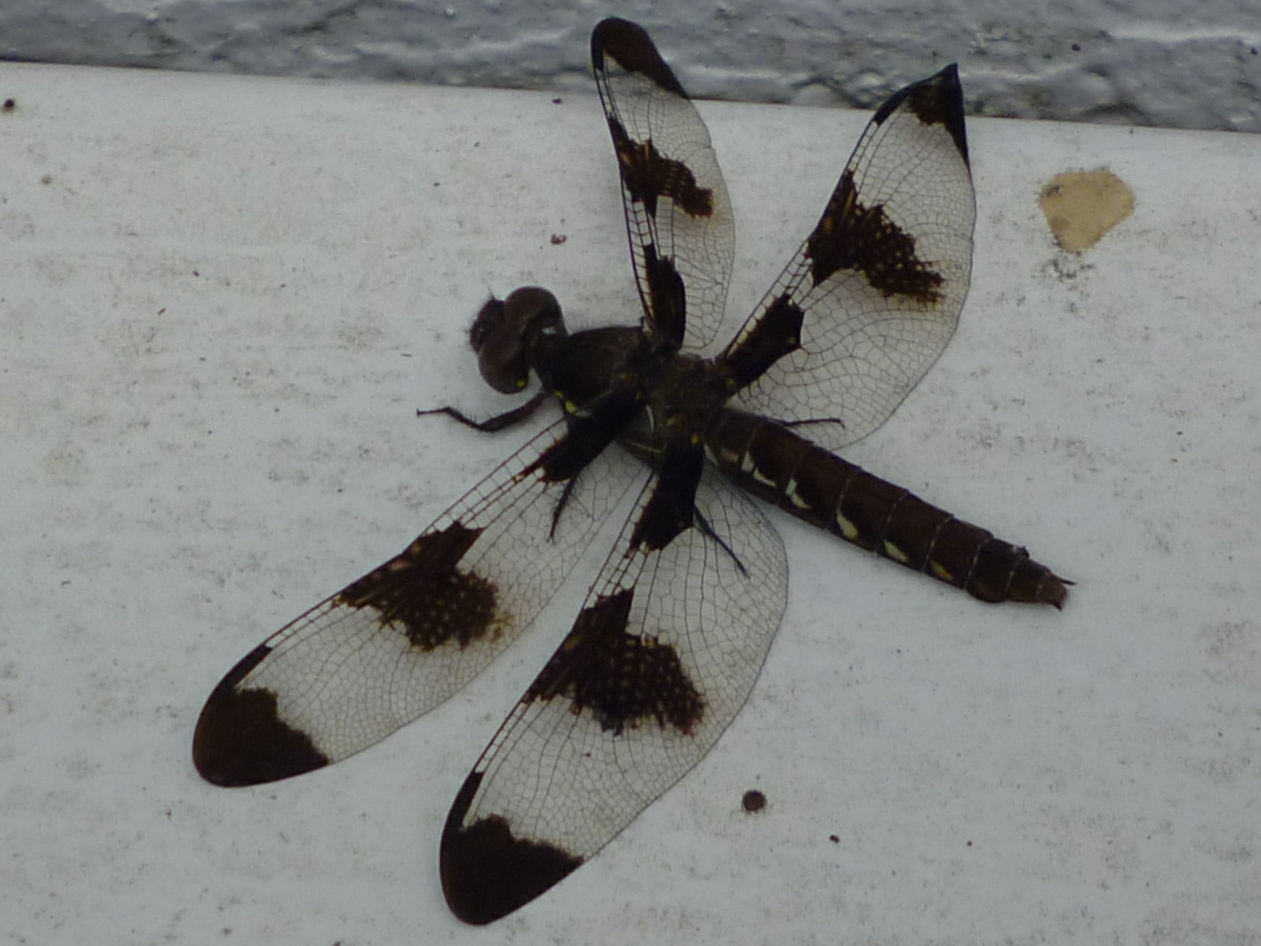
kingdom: Animalia
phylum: Arthropoda
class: Insecta
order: Odonata
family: Libellulidae
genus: Plathemis
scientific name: Plathemis lydia
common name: Common whitetail
